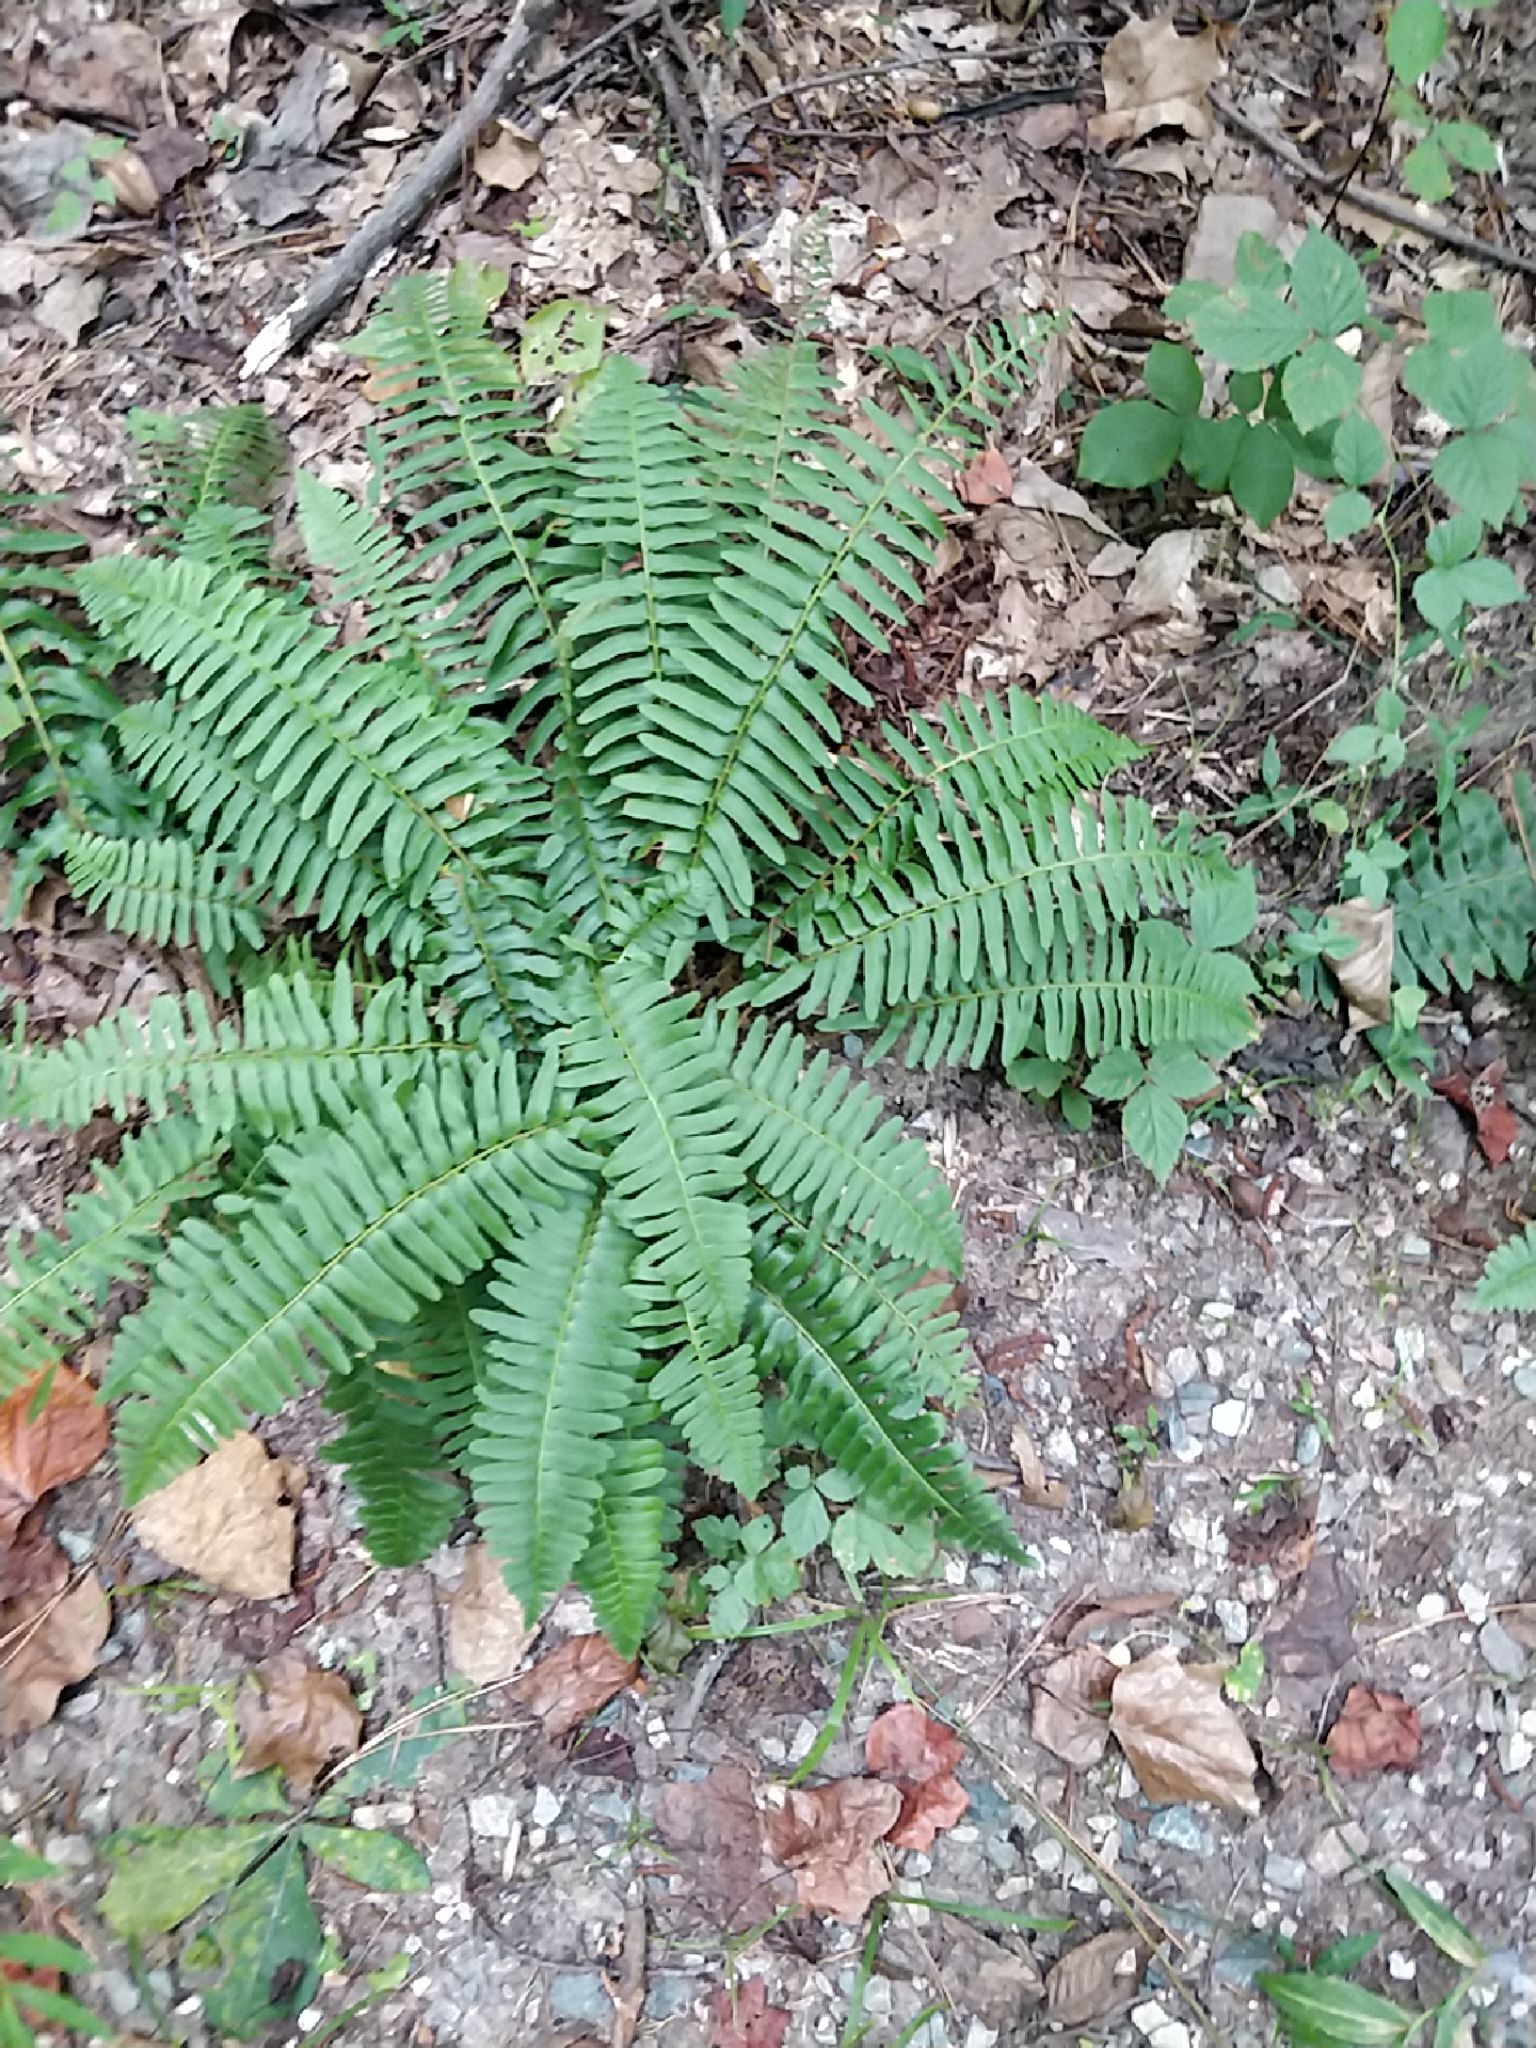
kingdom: Plantae
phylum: Tracheophyta
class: Polypodiopsida
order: Polypodiales
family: Dryopteridaceae
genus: Polystichum
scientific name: Polystichum acrostichoides
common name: Christmas fern
